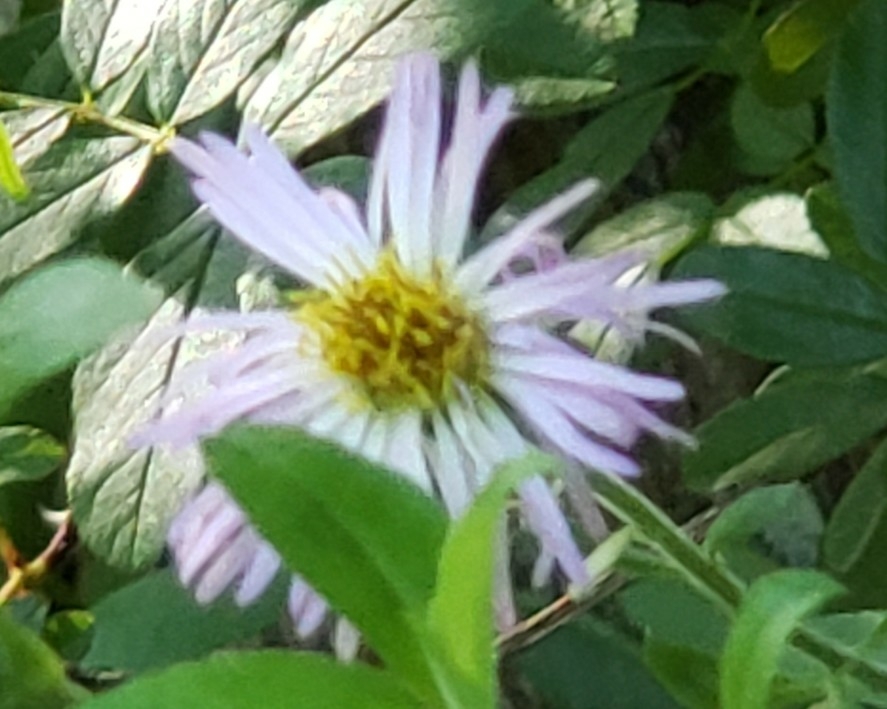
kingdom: Plantae
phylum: Tracheophyta
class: Magnoliopsida
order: Asterales
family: Asteraceae
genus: Ampelaster
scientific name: Ampelaster carolinianus
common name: Climbing aster
